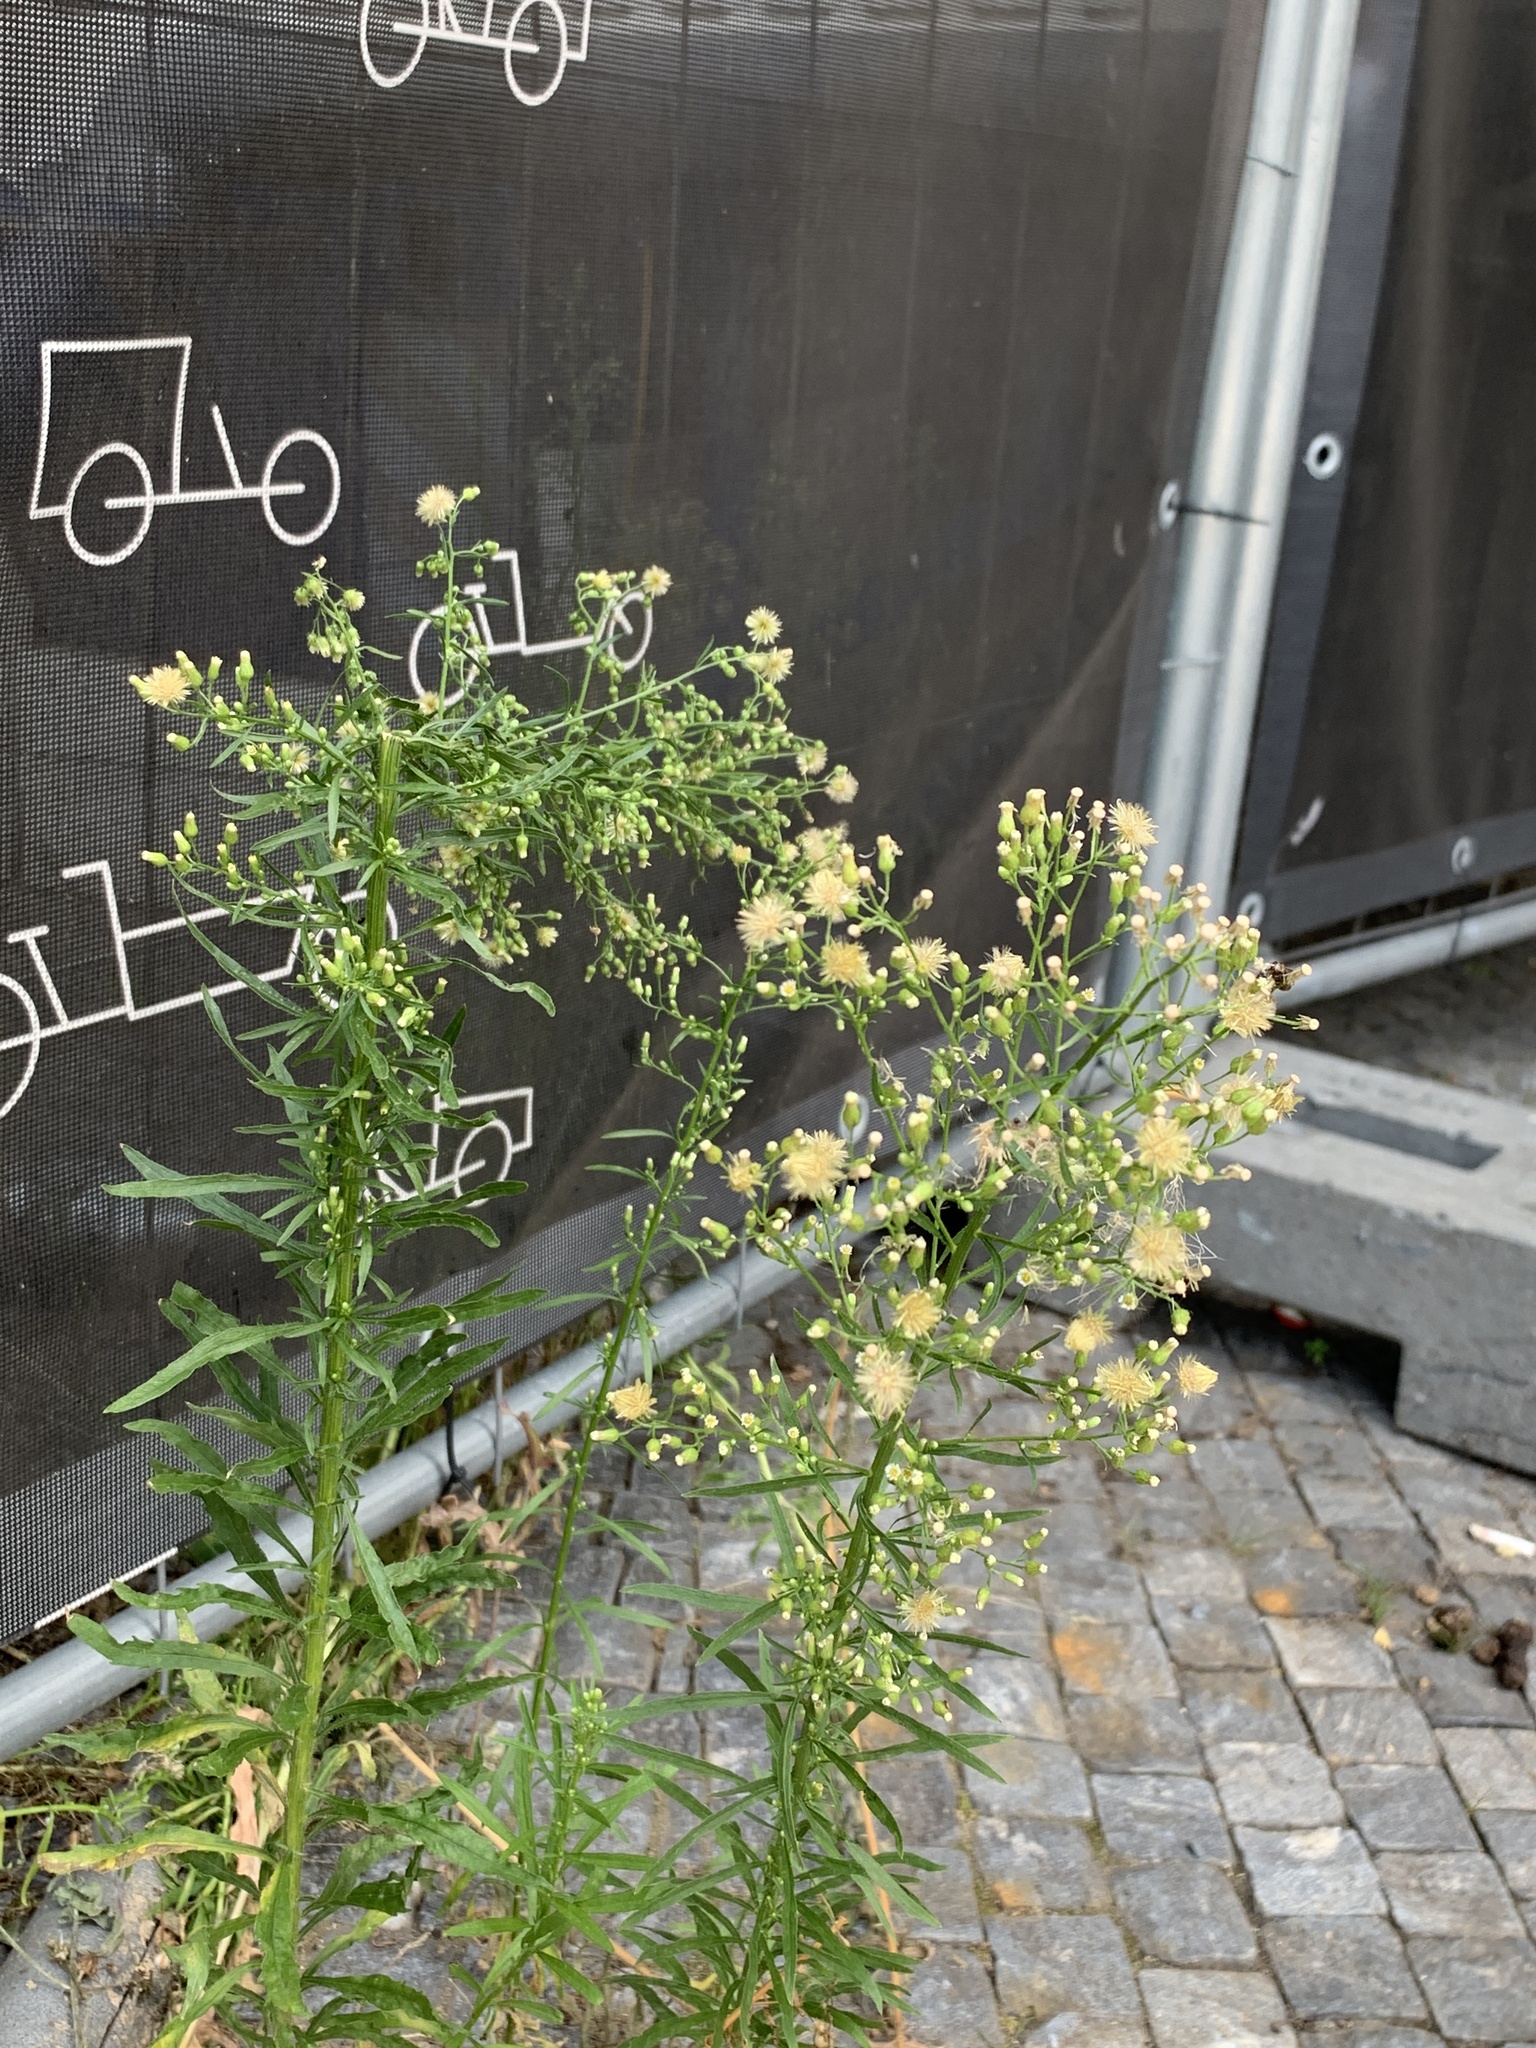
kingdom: Plantae
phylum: Tracheophyta
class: Magnoliopsida
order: Asterales
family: Asteraceae
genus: Erigeron
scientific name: Erigeron canadensis
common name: Canadian fleabane
